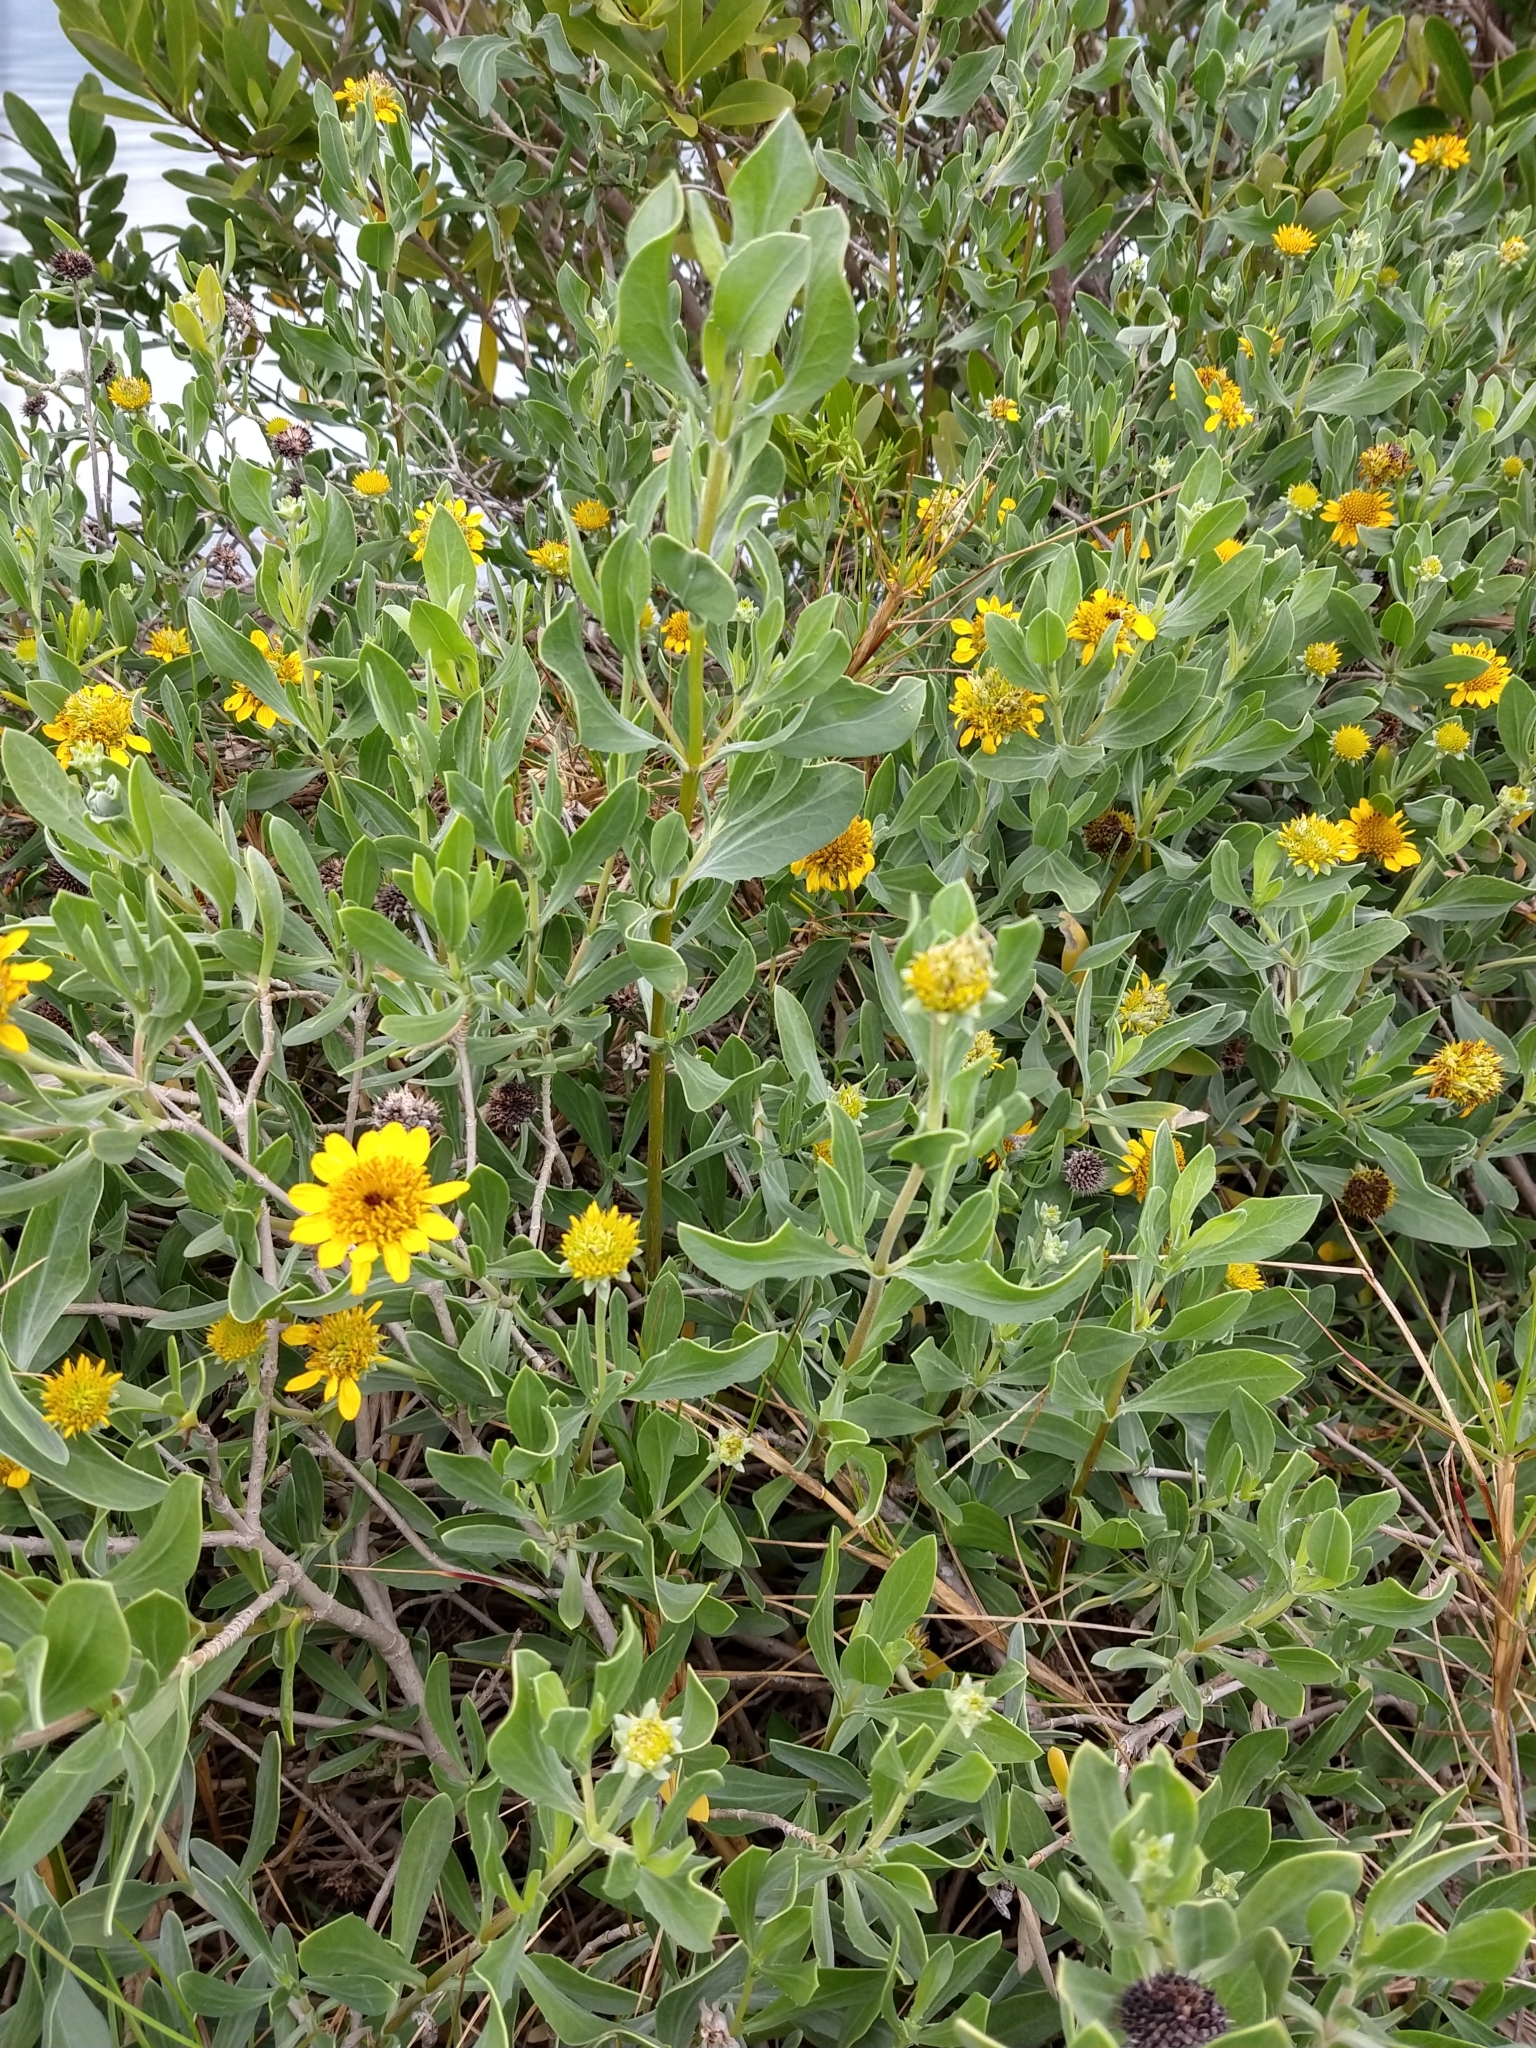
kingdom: Plantae
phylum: Tracheophyta
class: Magnoliopsida
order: Asterales
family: Asteraceae
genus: Borrichia
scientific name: Borrichia frutescens
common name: Sea oxeye
